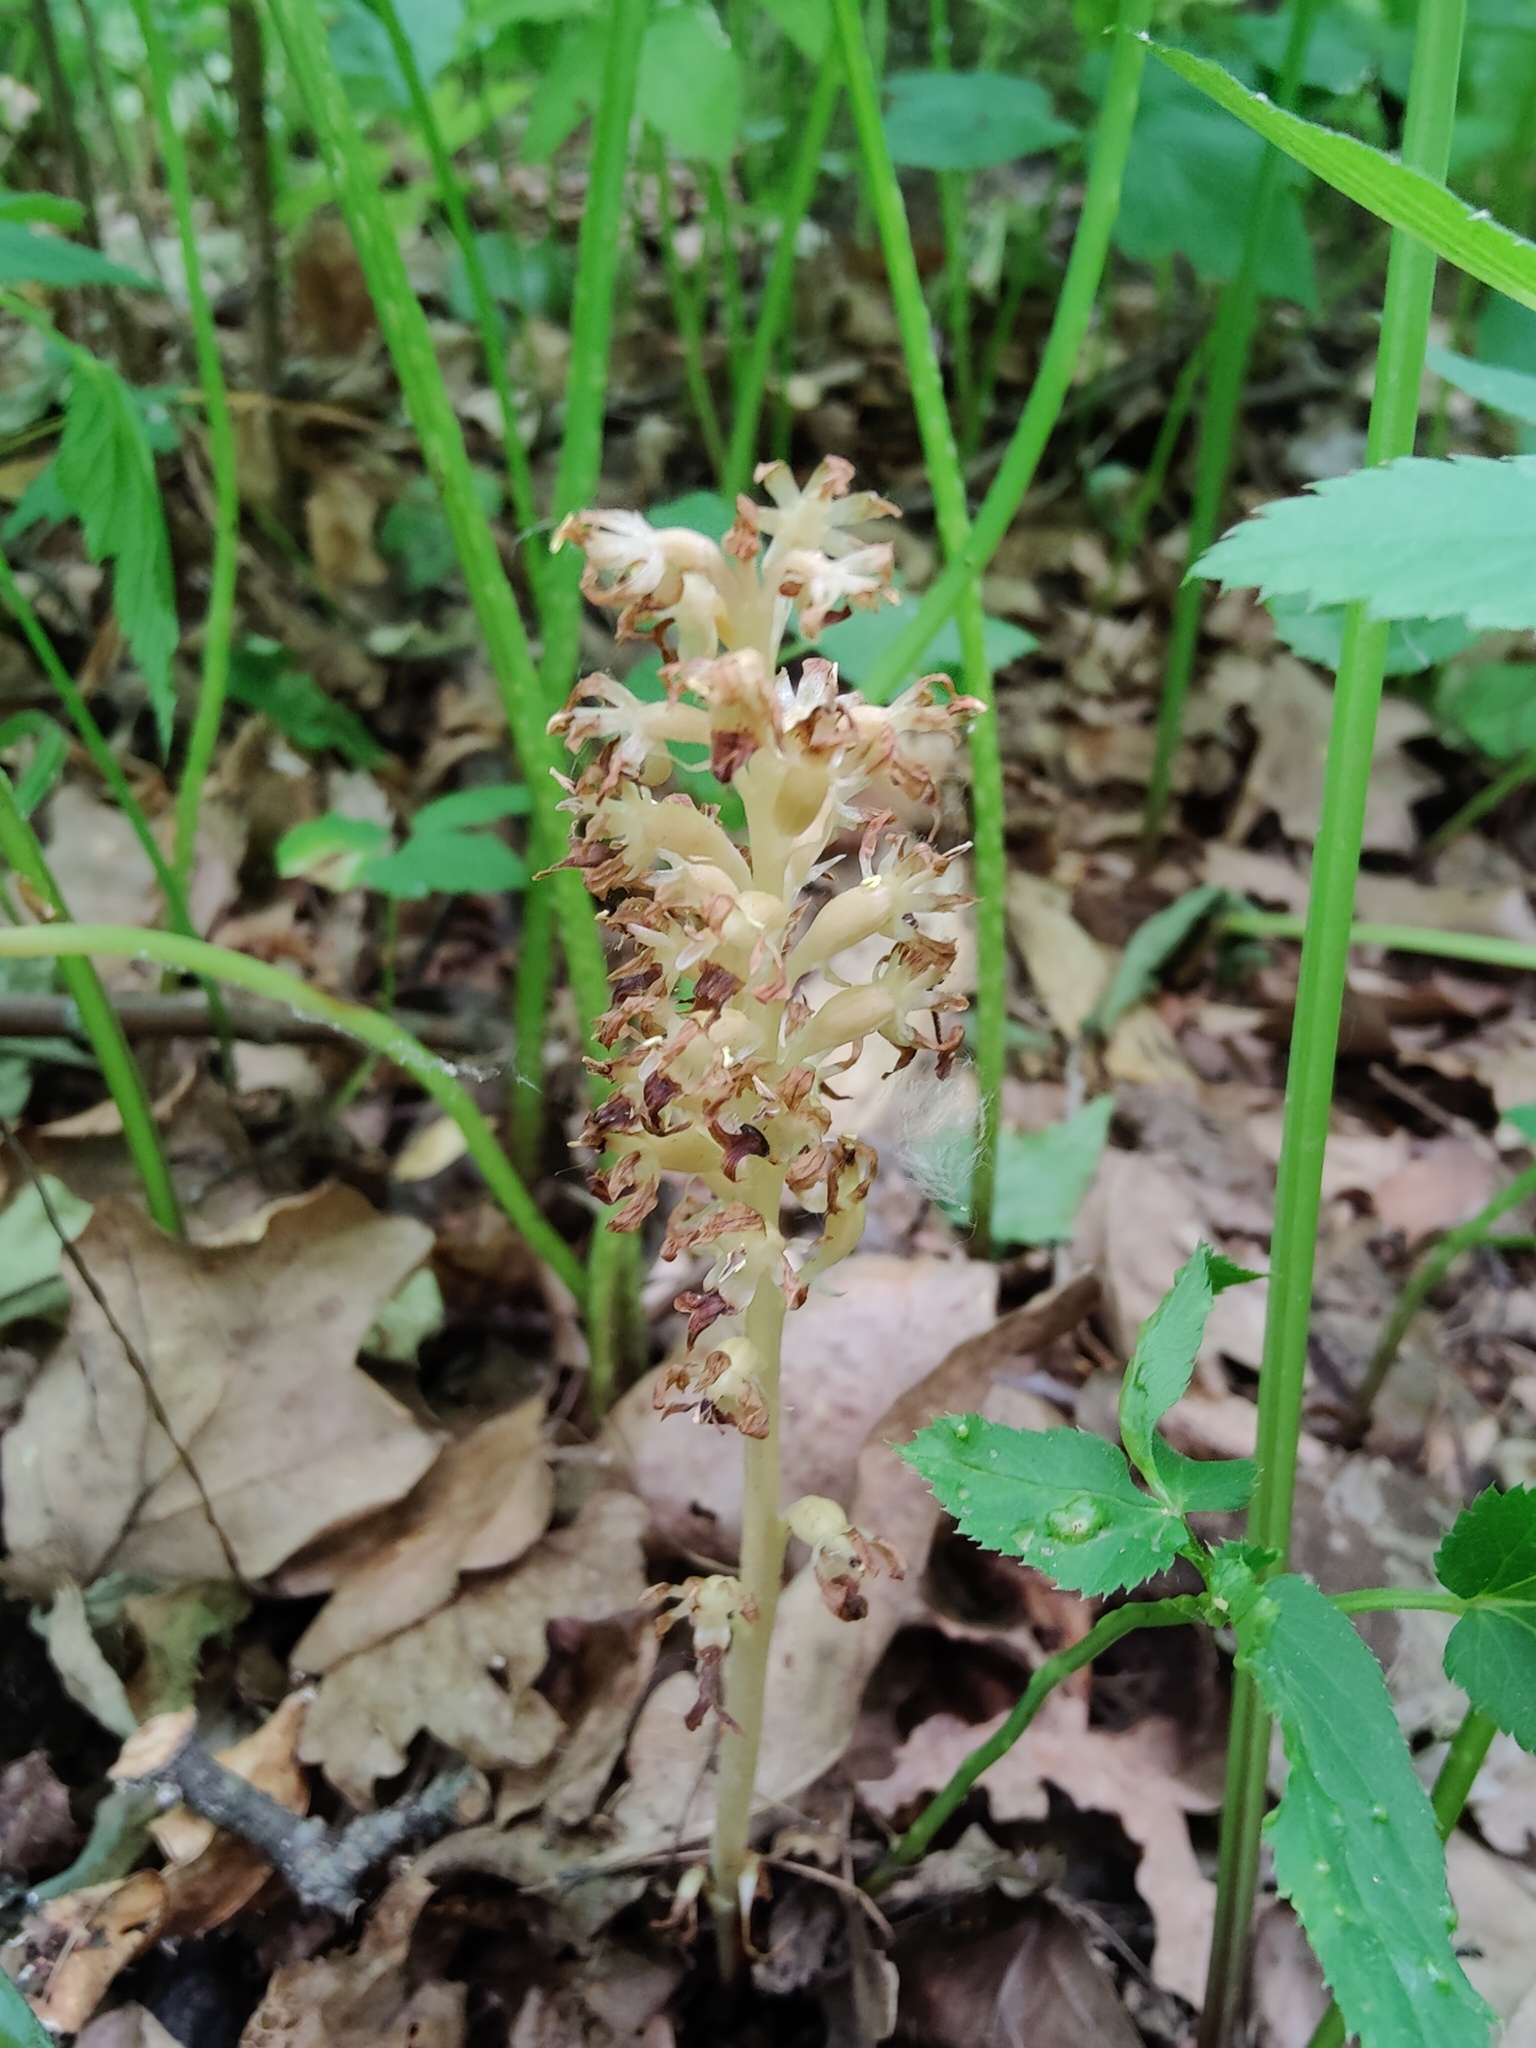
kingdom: Plantae
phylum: Tracheophyta
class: Liliopsida
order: Asparagales
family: Orchidaceae
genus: Neottia
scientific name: Neottia nidus-avis
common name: Bird's-nest orchid
